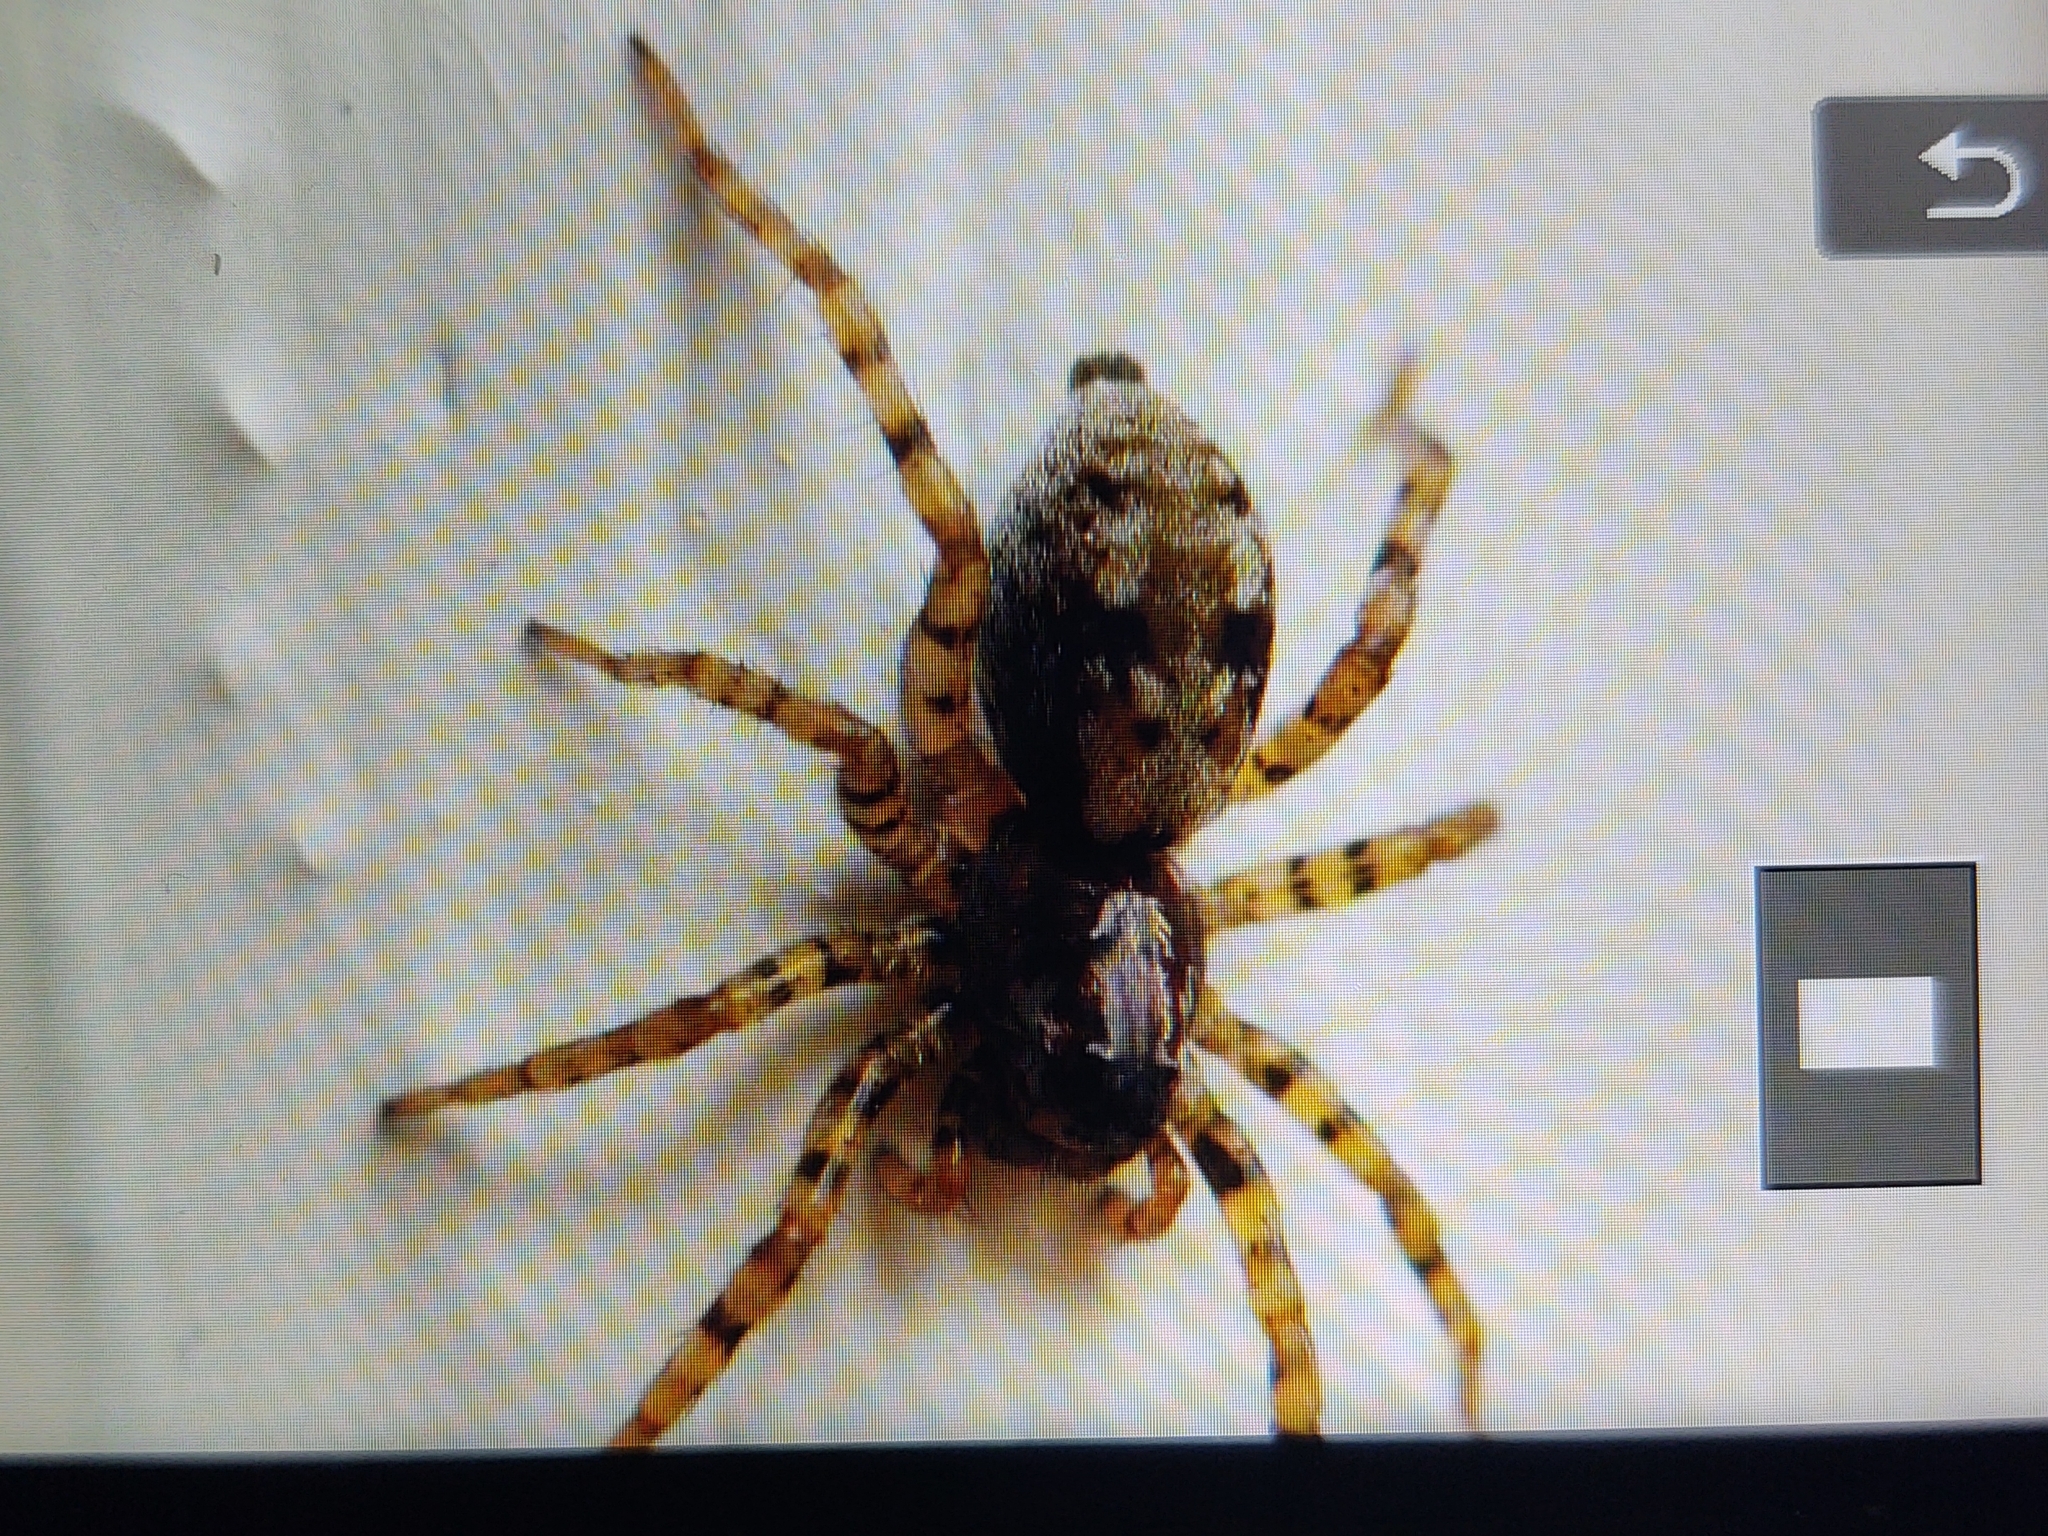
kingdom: Animalia
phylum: Arthropoda
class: Arachnida
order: Araneae
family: Lycosidae
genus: Arctosa
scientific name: Arctosa perita
